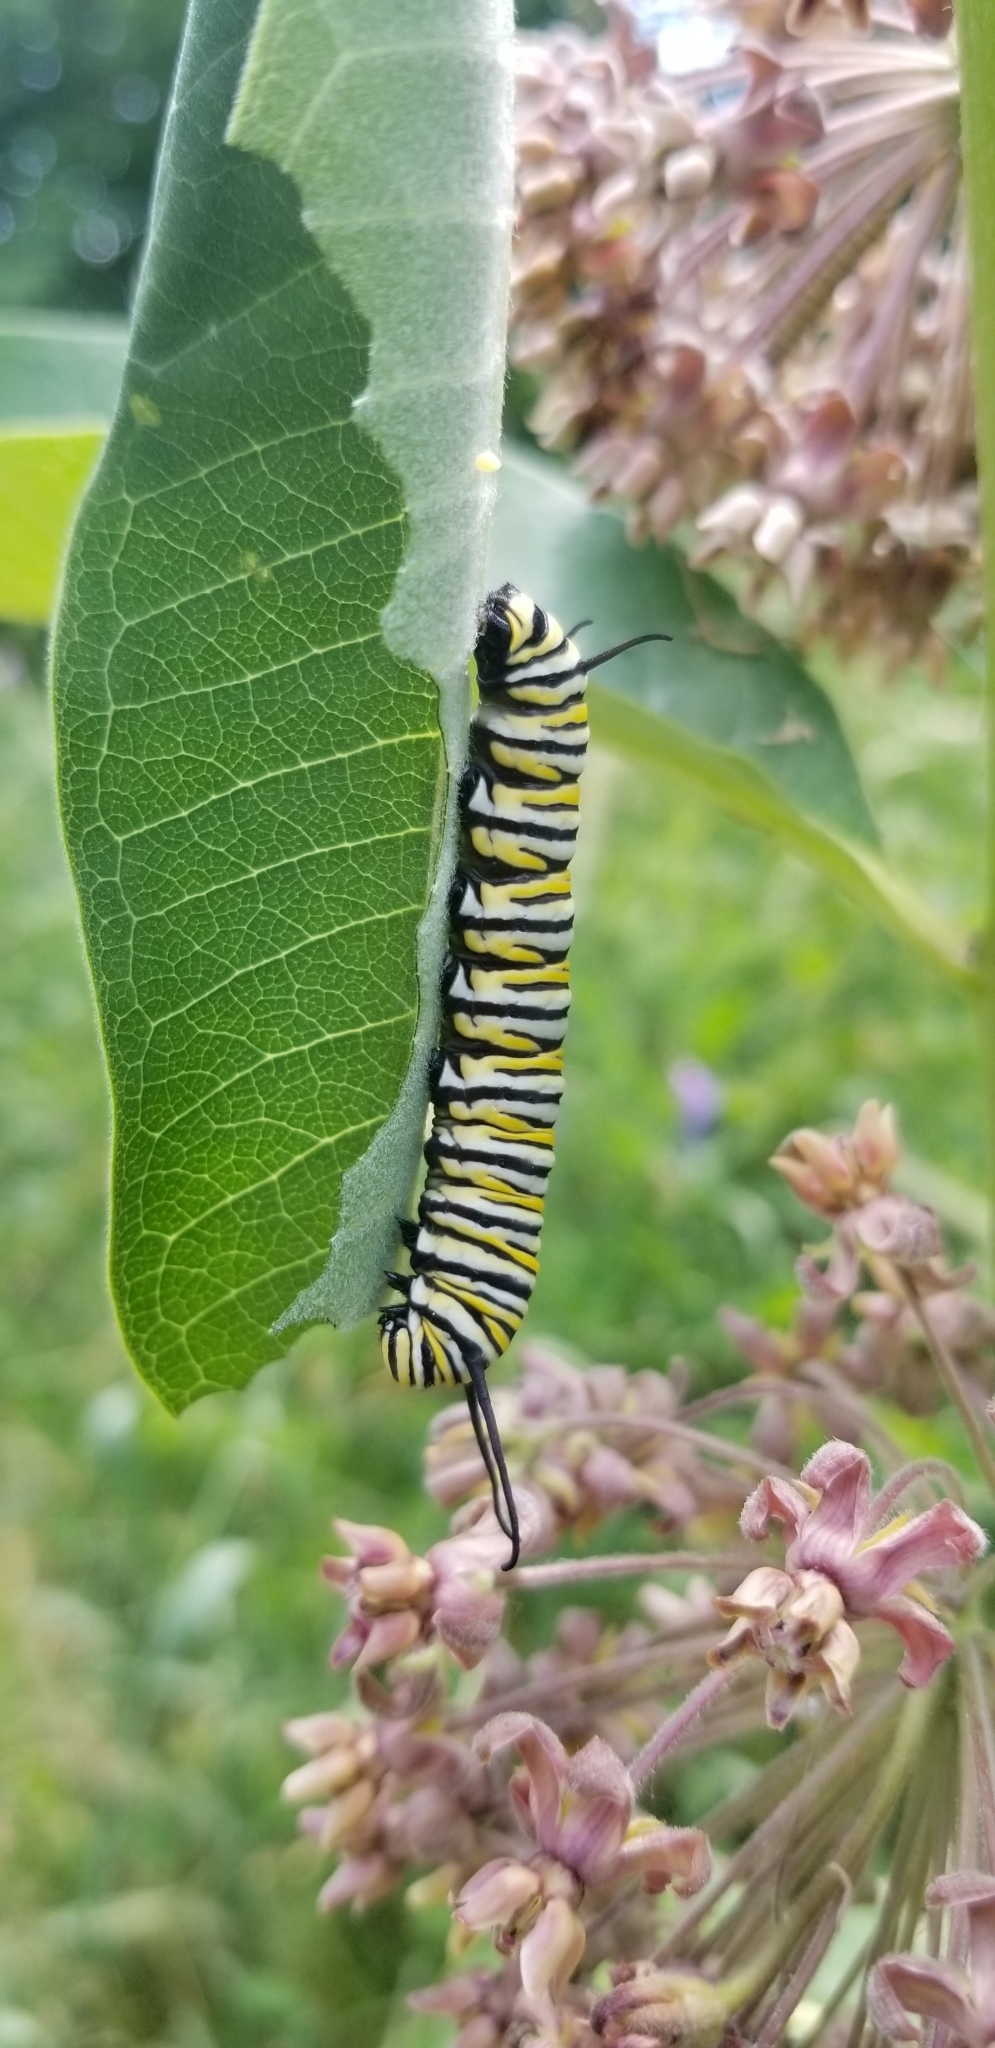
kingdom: Animalia
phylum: Arthropoda
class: Insecta
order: Lepidoptera
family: Nymphalidae
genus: Danaus
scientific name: Danaus plexippus
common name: Monarch
